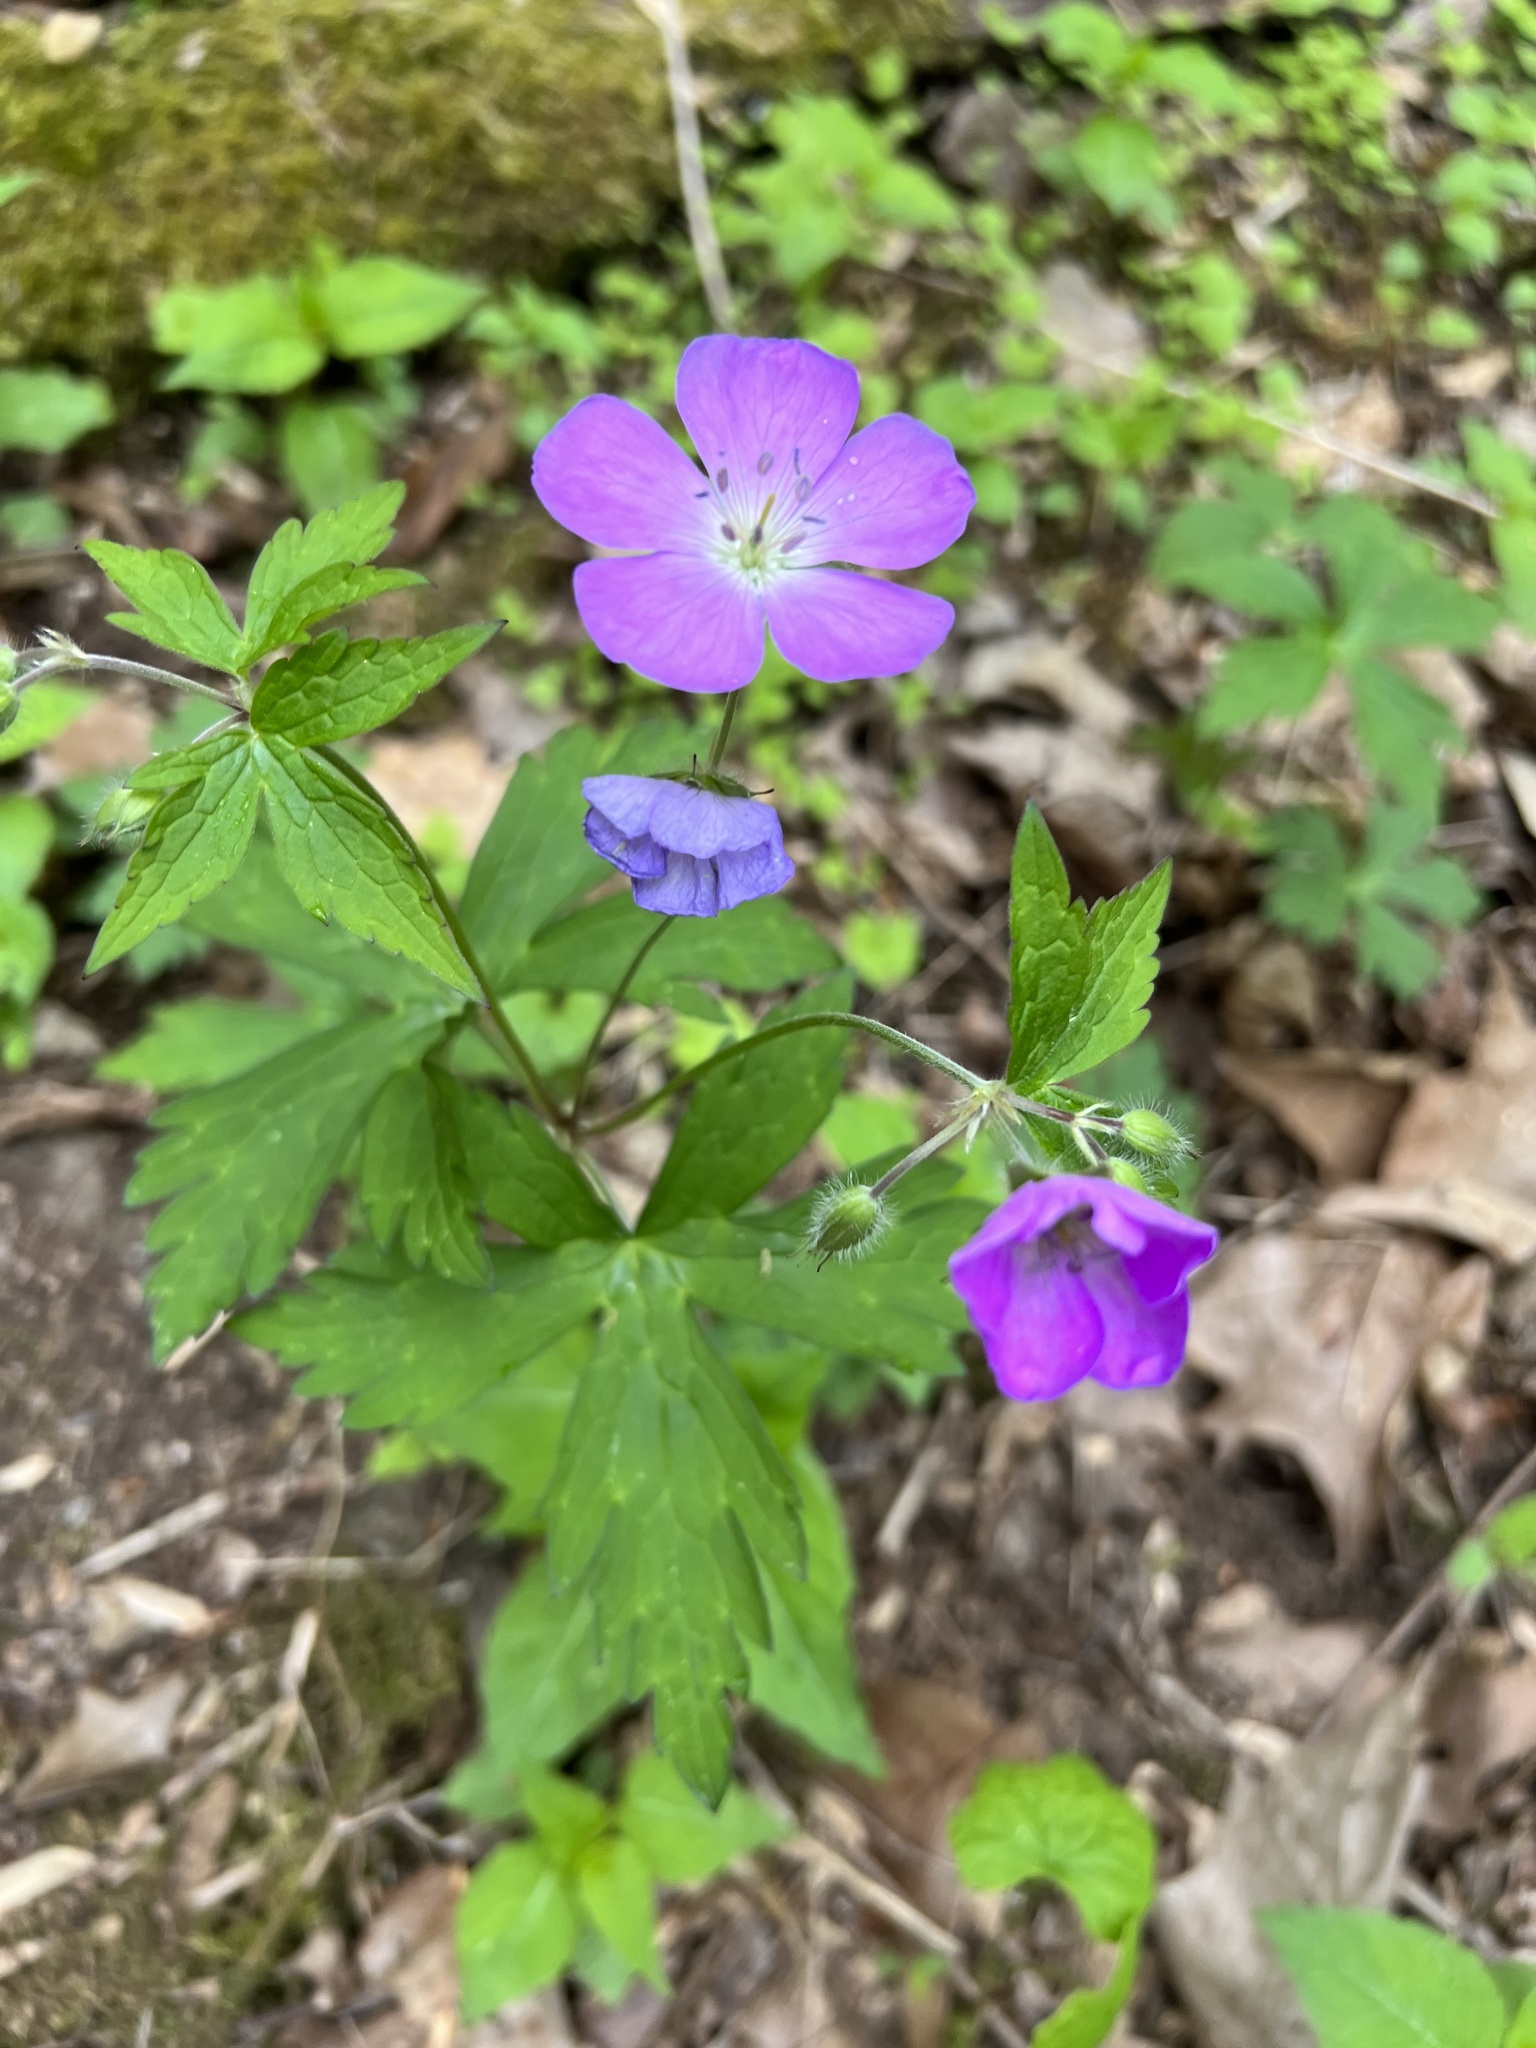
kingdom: Plantae
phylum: Tracheophyta
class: Magnoliopsida
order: Geraniales
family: Geraniaceae
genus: Geranium
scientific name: Geranium maculatum
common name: Spotted geranium
